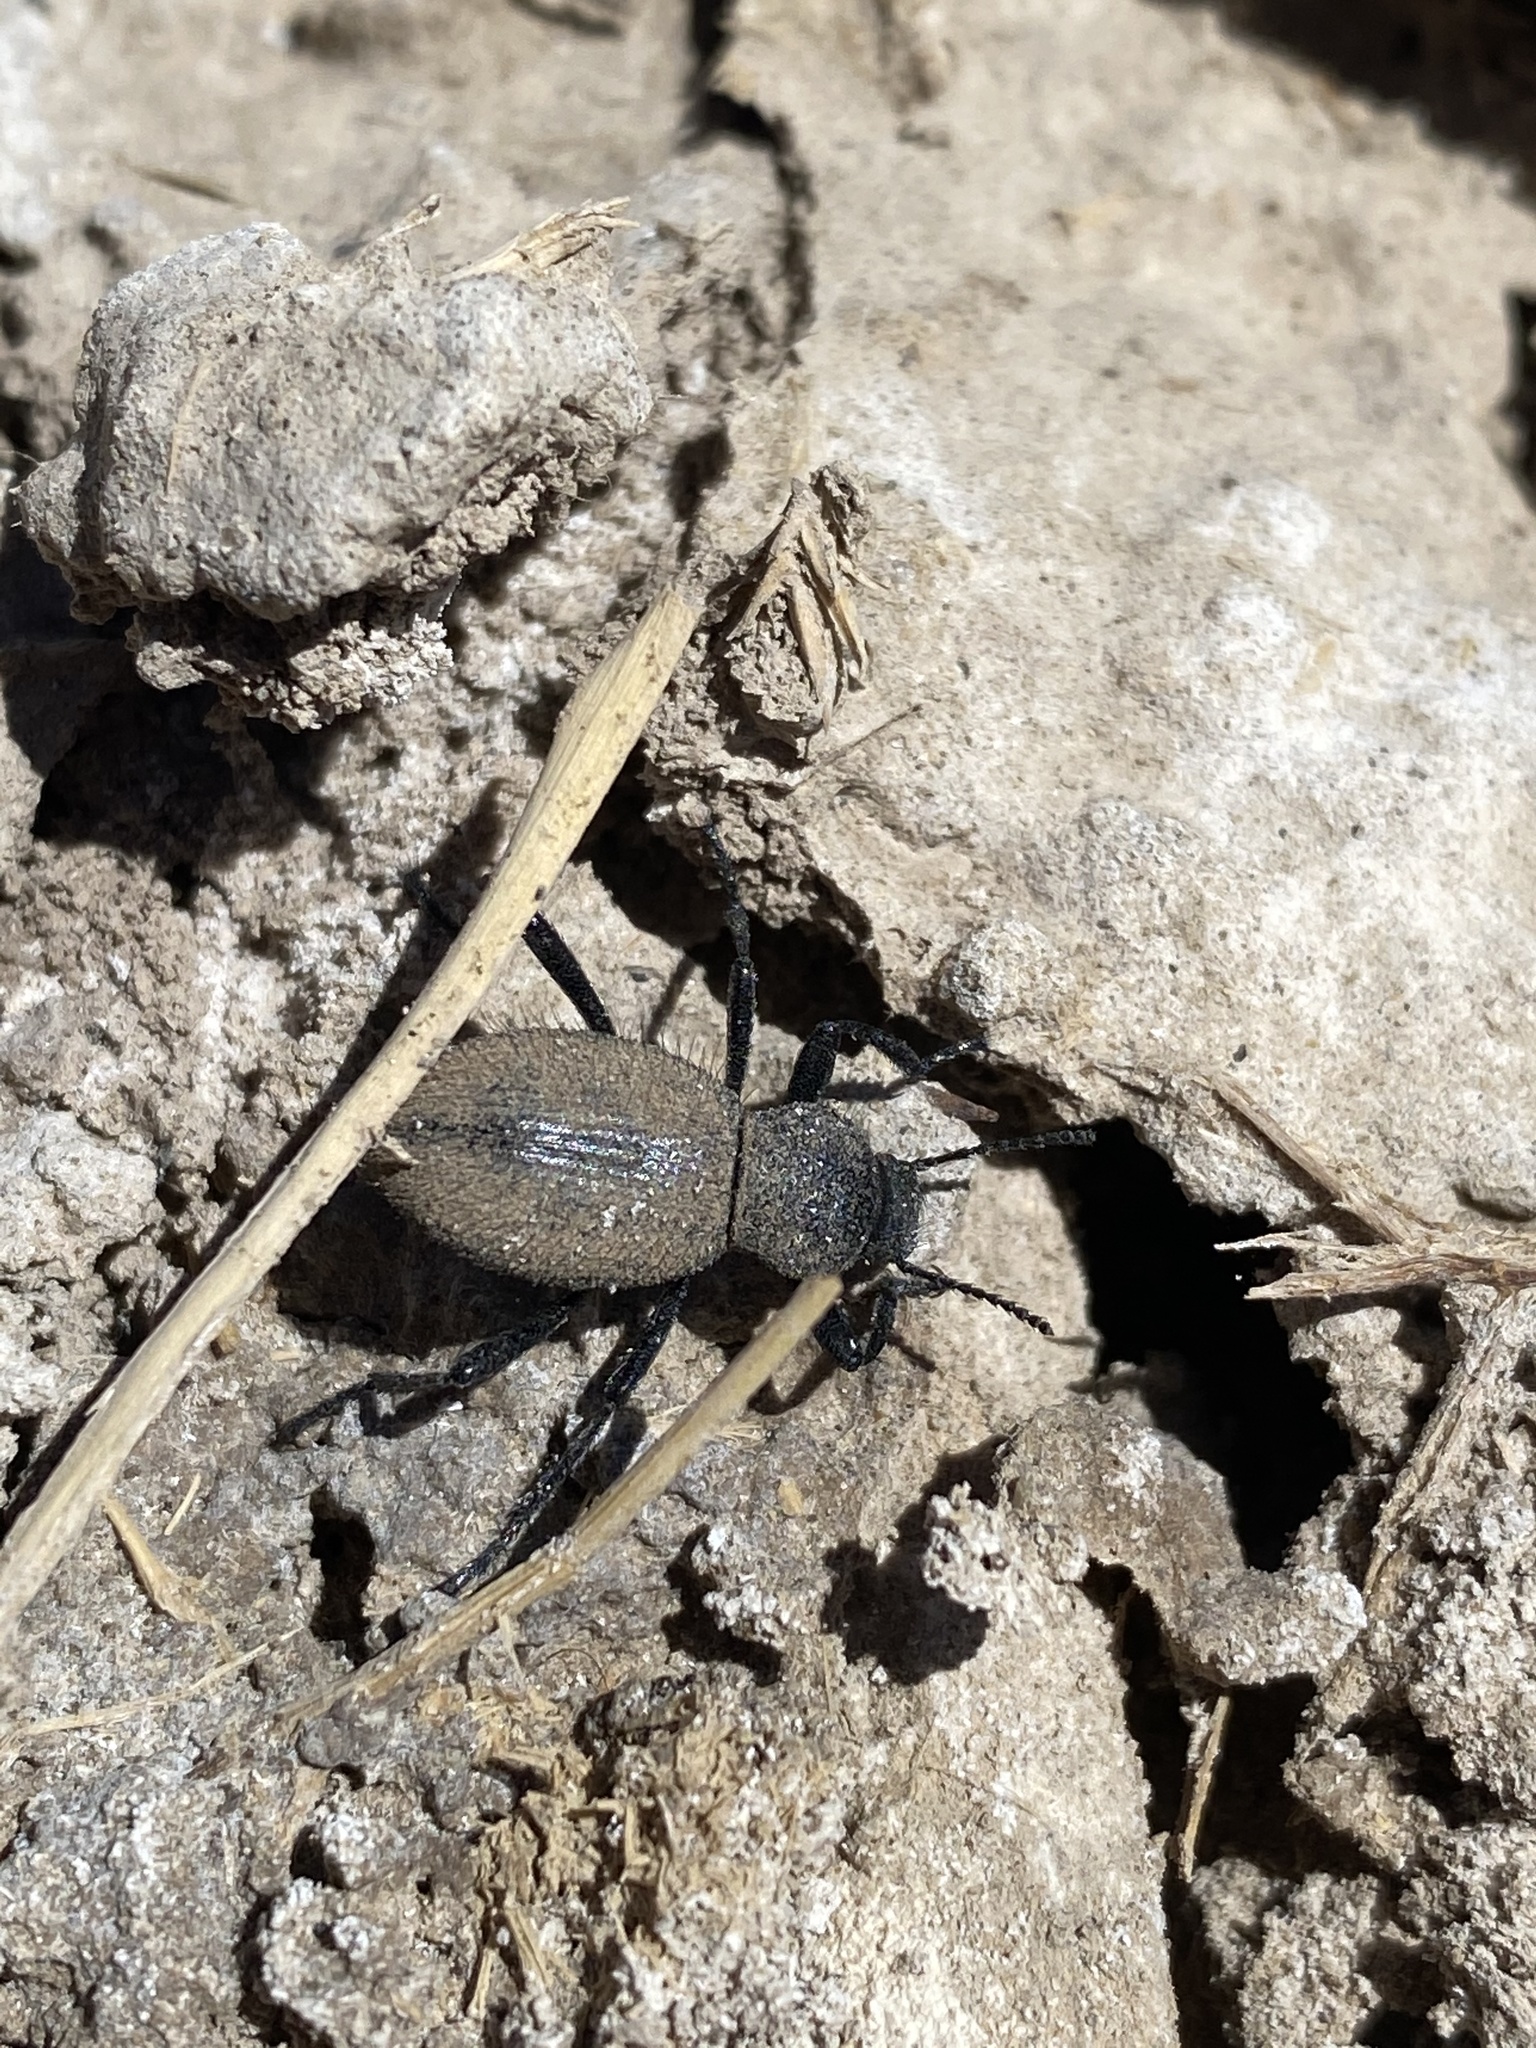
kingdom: Animalia
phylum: Arthropoda
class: Insecta
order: Coleoptera
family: Tenebrionidae
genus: Eleodes
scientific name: Eleodes pilosa
